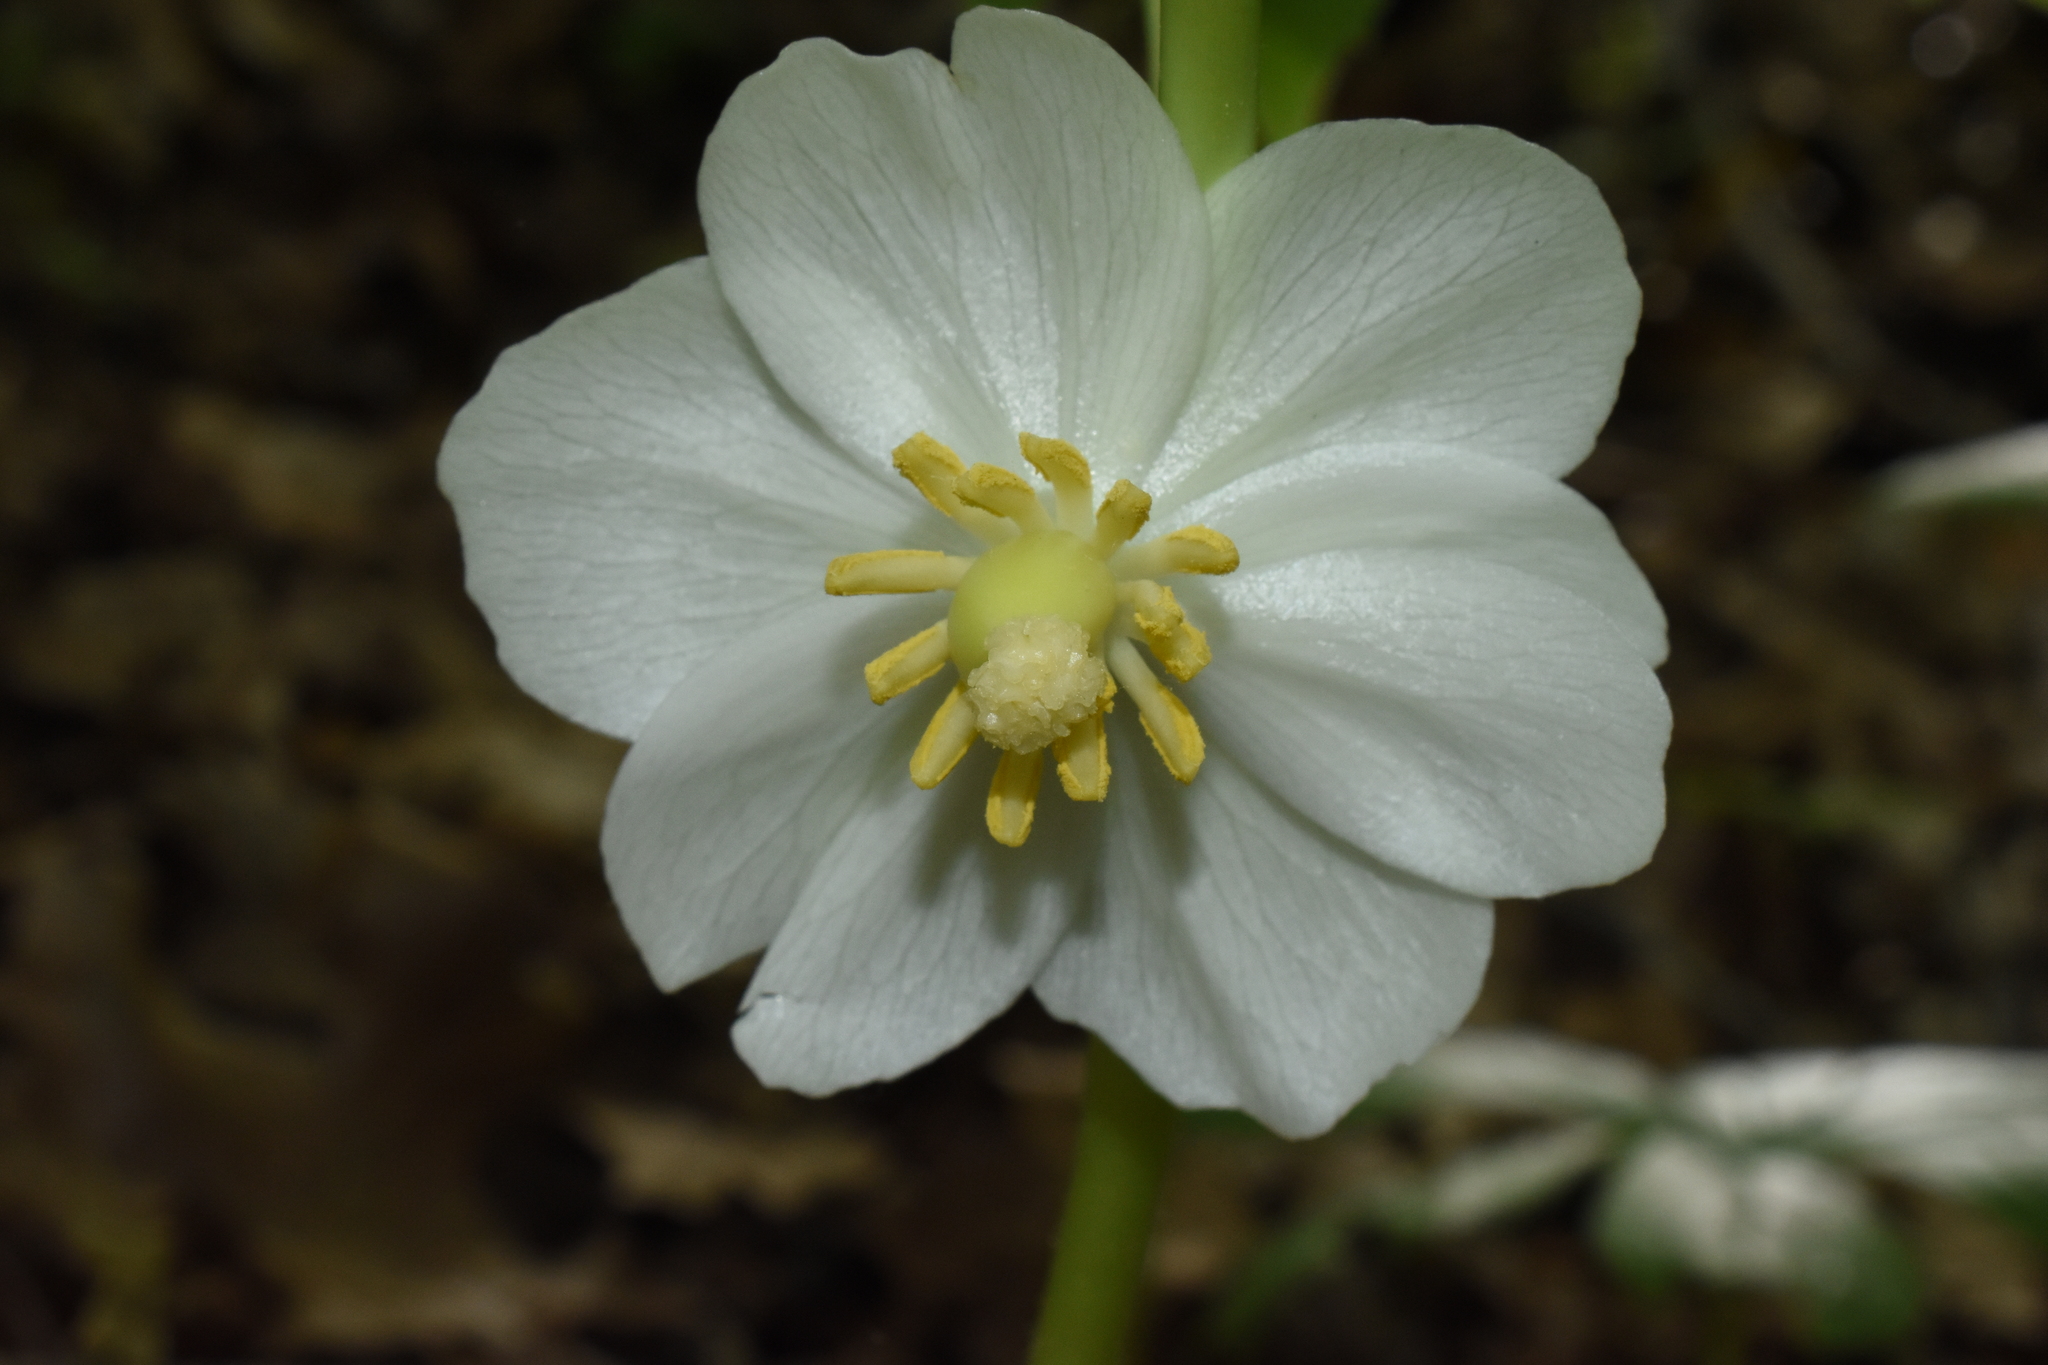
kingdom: Plantae
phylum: Tracheophyta
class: Magnoliopsida
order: Ranunculales
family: Berberidaceae
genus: Podophyllum
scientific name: Podophyllum peltatum
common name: Wild mandrake
